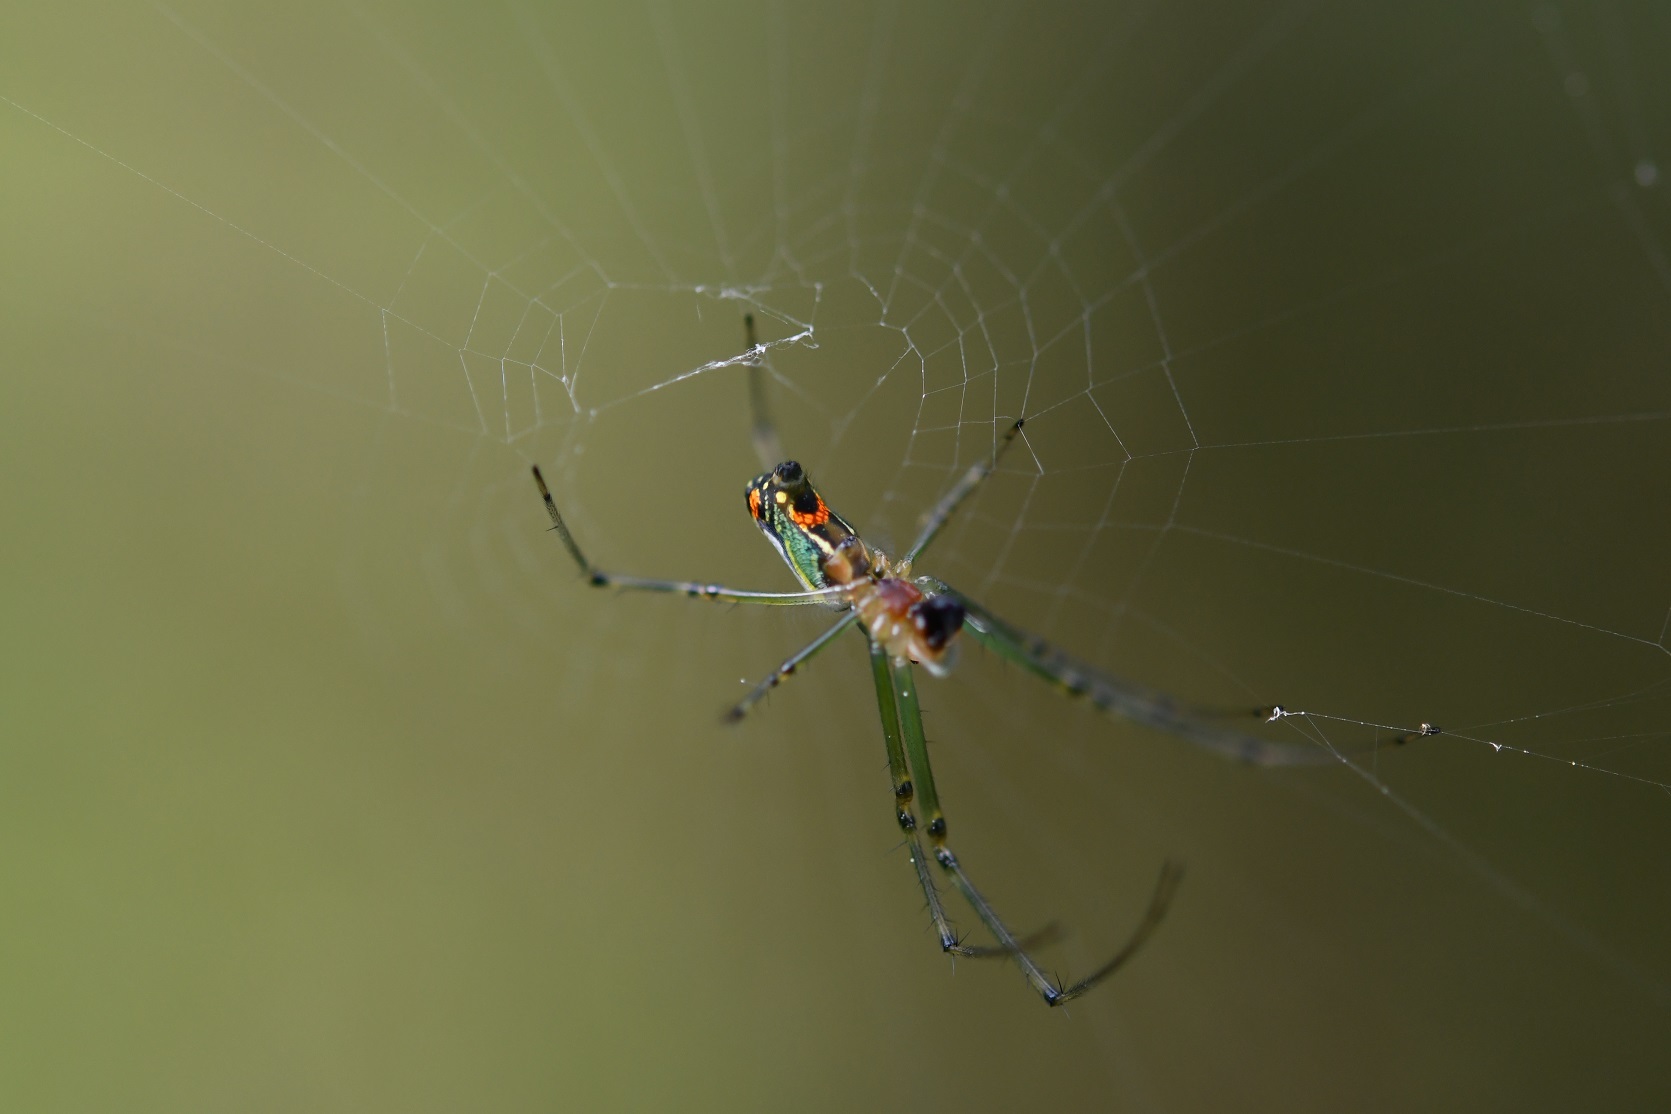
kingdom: Animalia
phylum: Arthropoda
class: Arachnida
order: Araneae
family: Tetragnathidae
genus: Leucauge
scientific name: Leucauge argyrobapta
